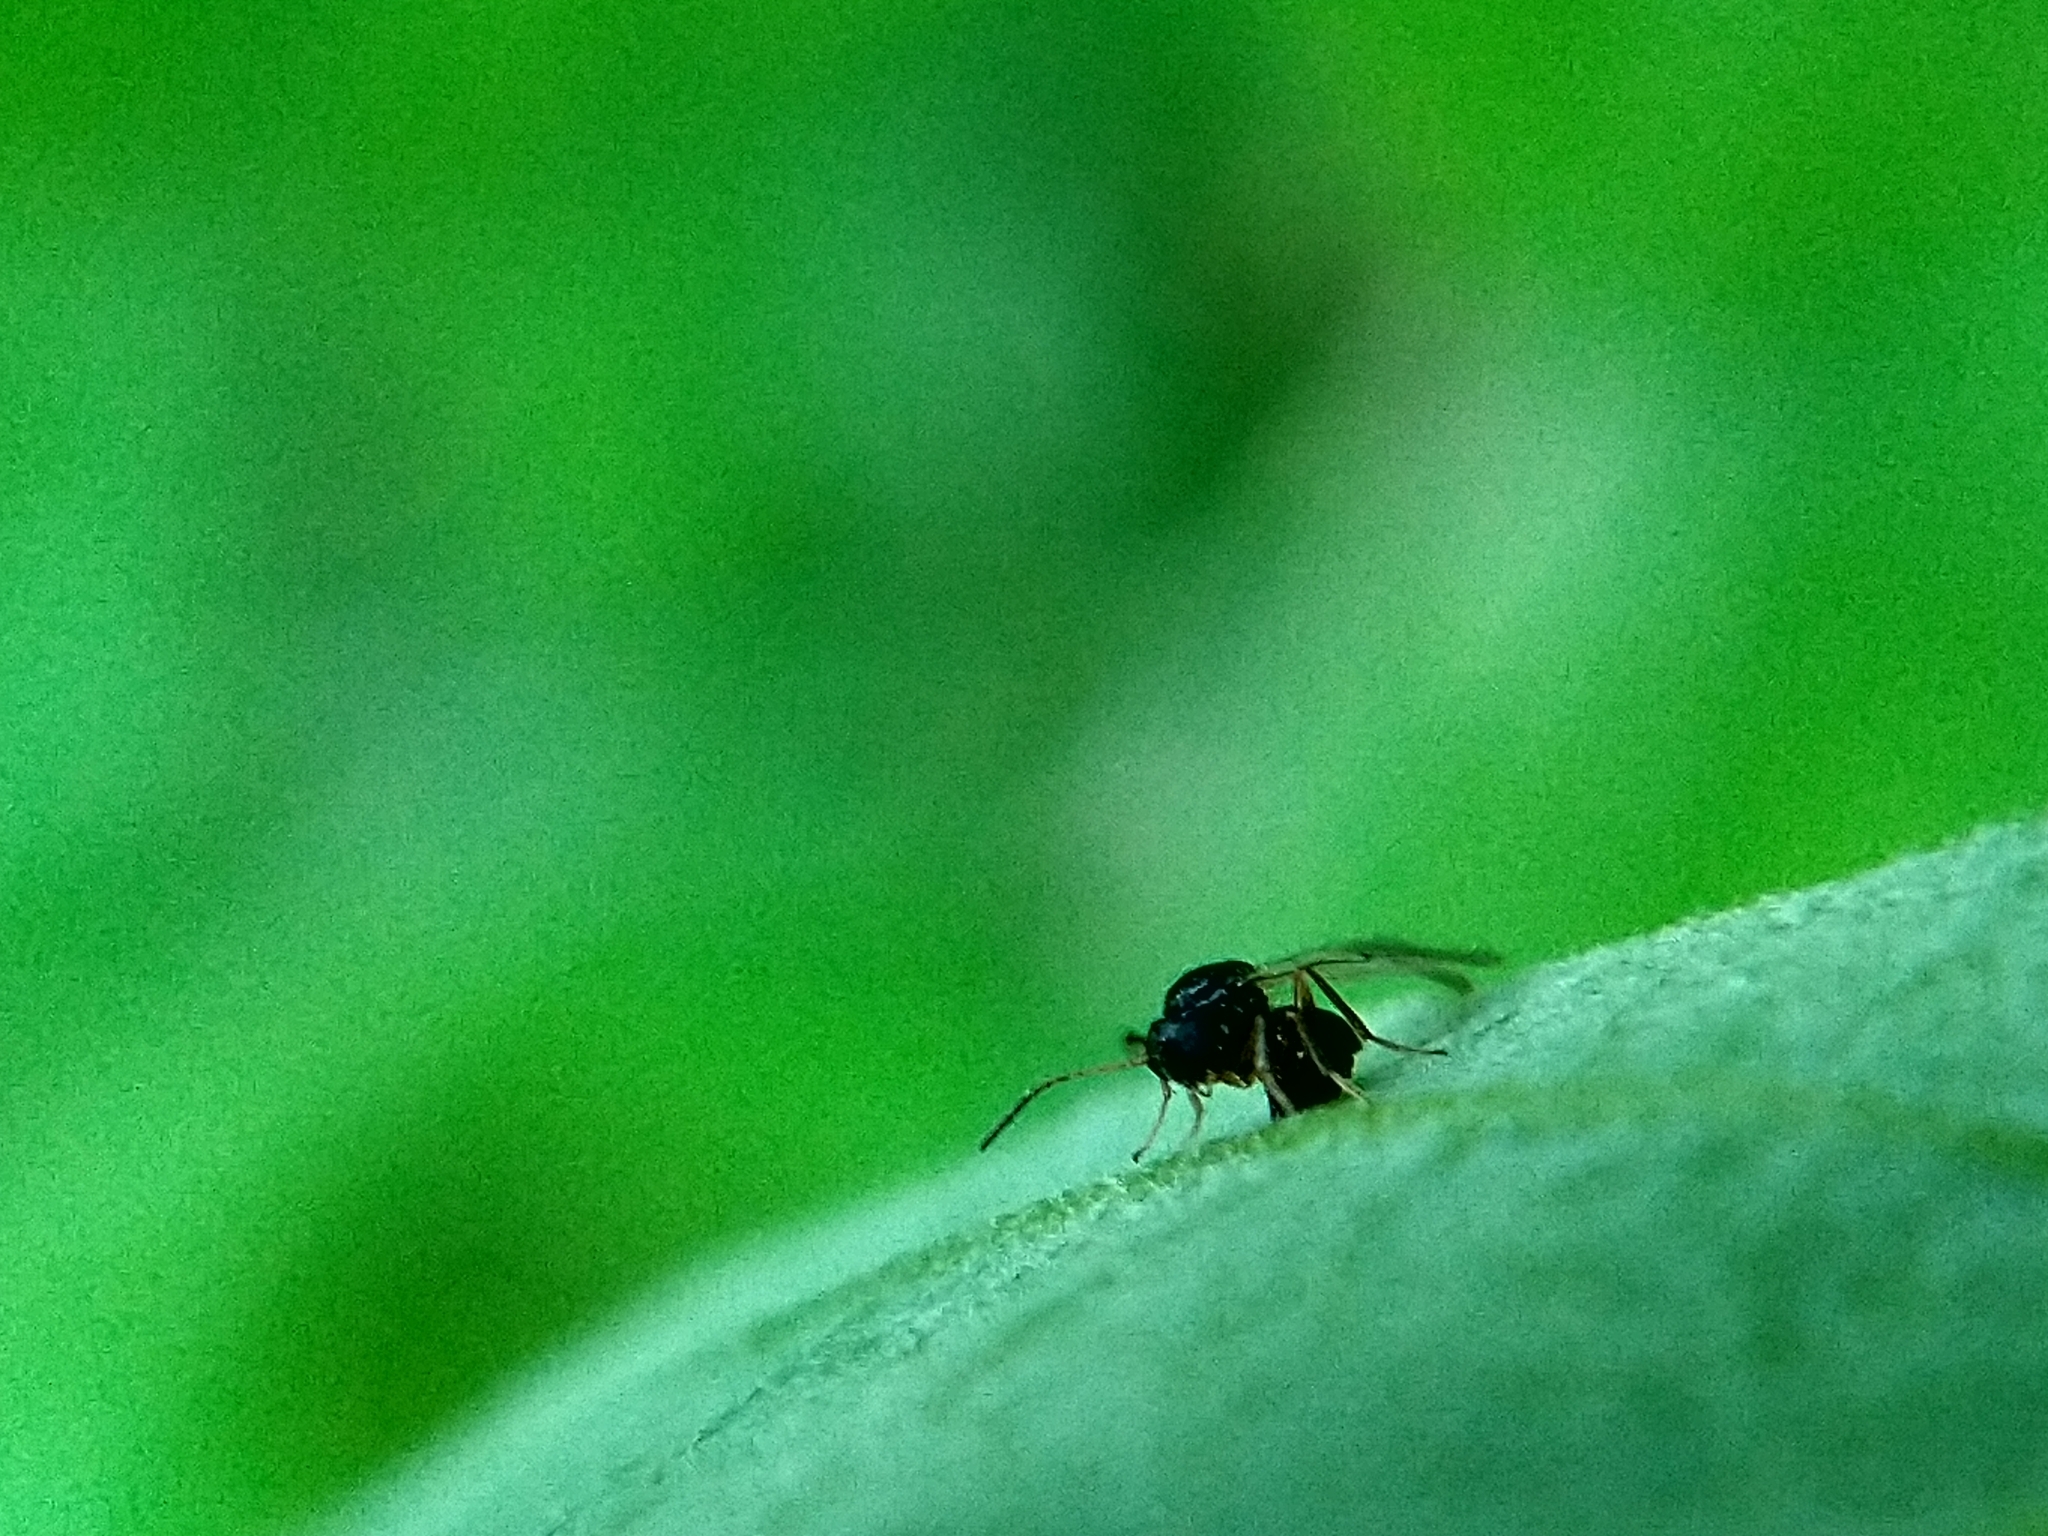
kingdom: Animalia
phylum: Arthropoda
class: Insecta
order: Hymenoptera
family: Cynipidae
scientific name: Cynipidae
